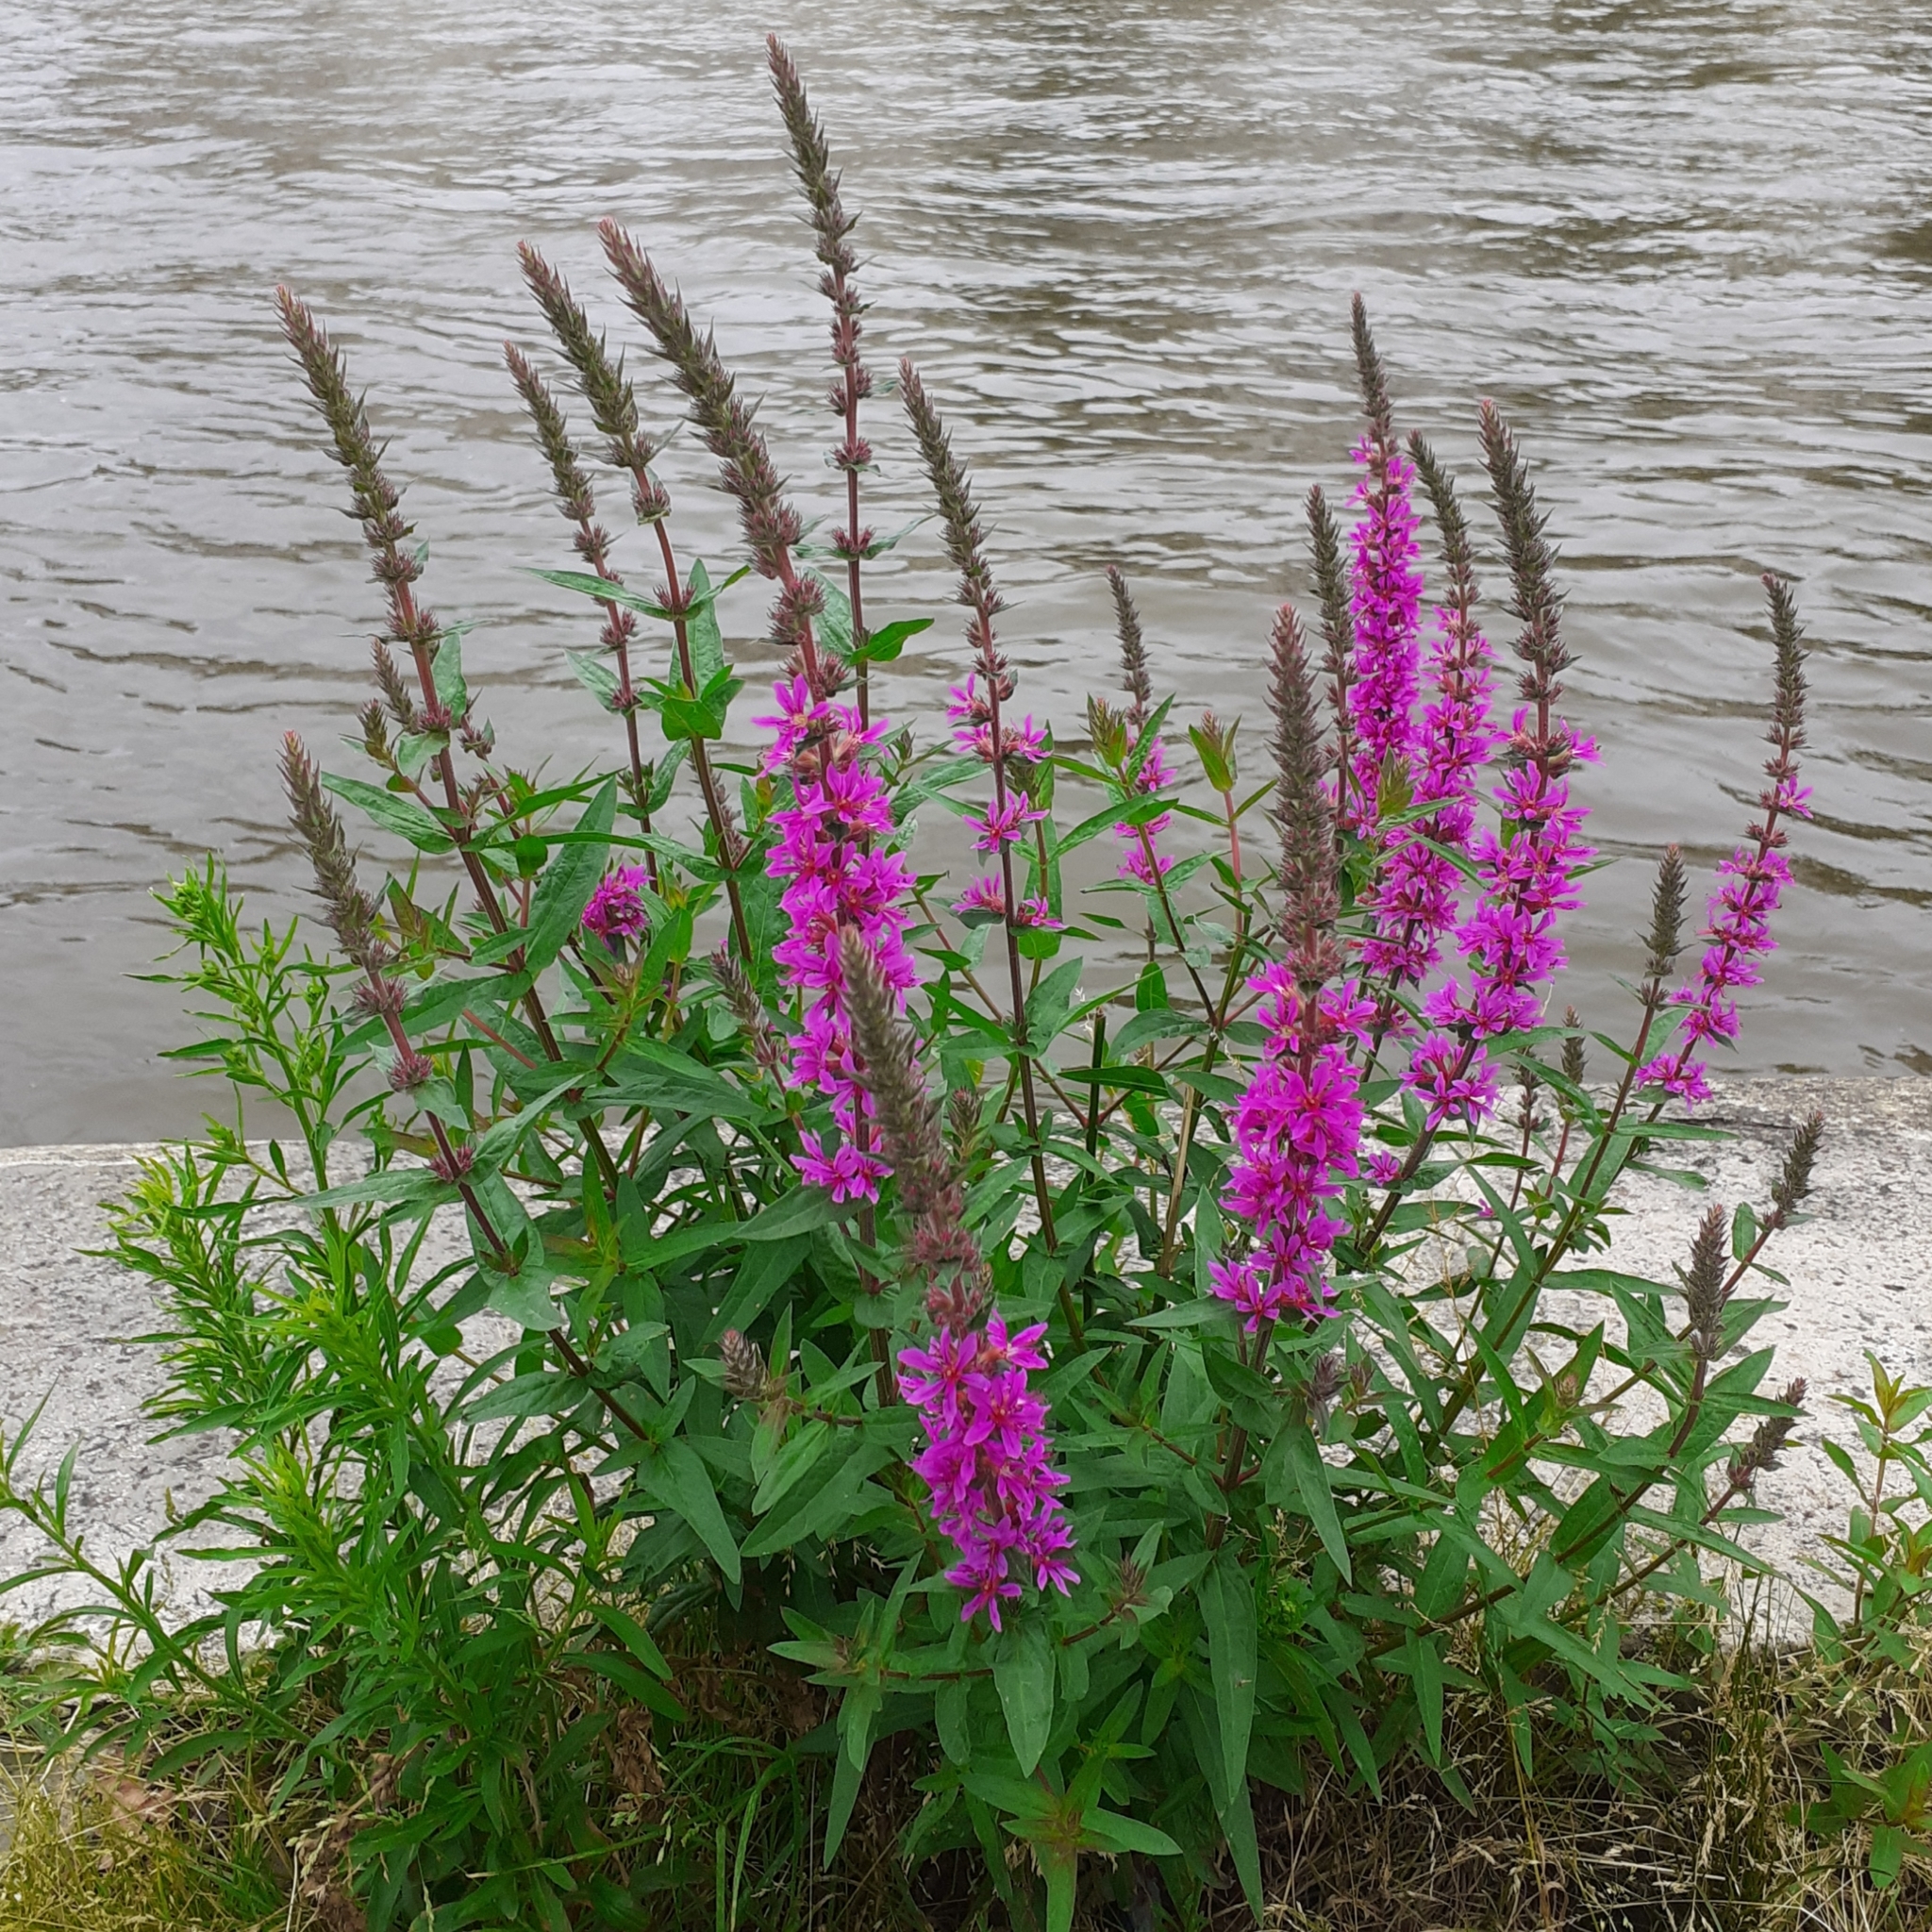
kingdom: Plantae
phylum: Tracheophyta
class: Magnoliopsida
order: Myrtales
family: Lythraceae
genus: Lythrum
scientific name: Lythrum salicaria
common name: Purple loosestrife
